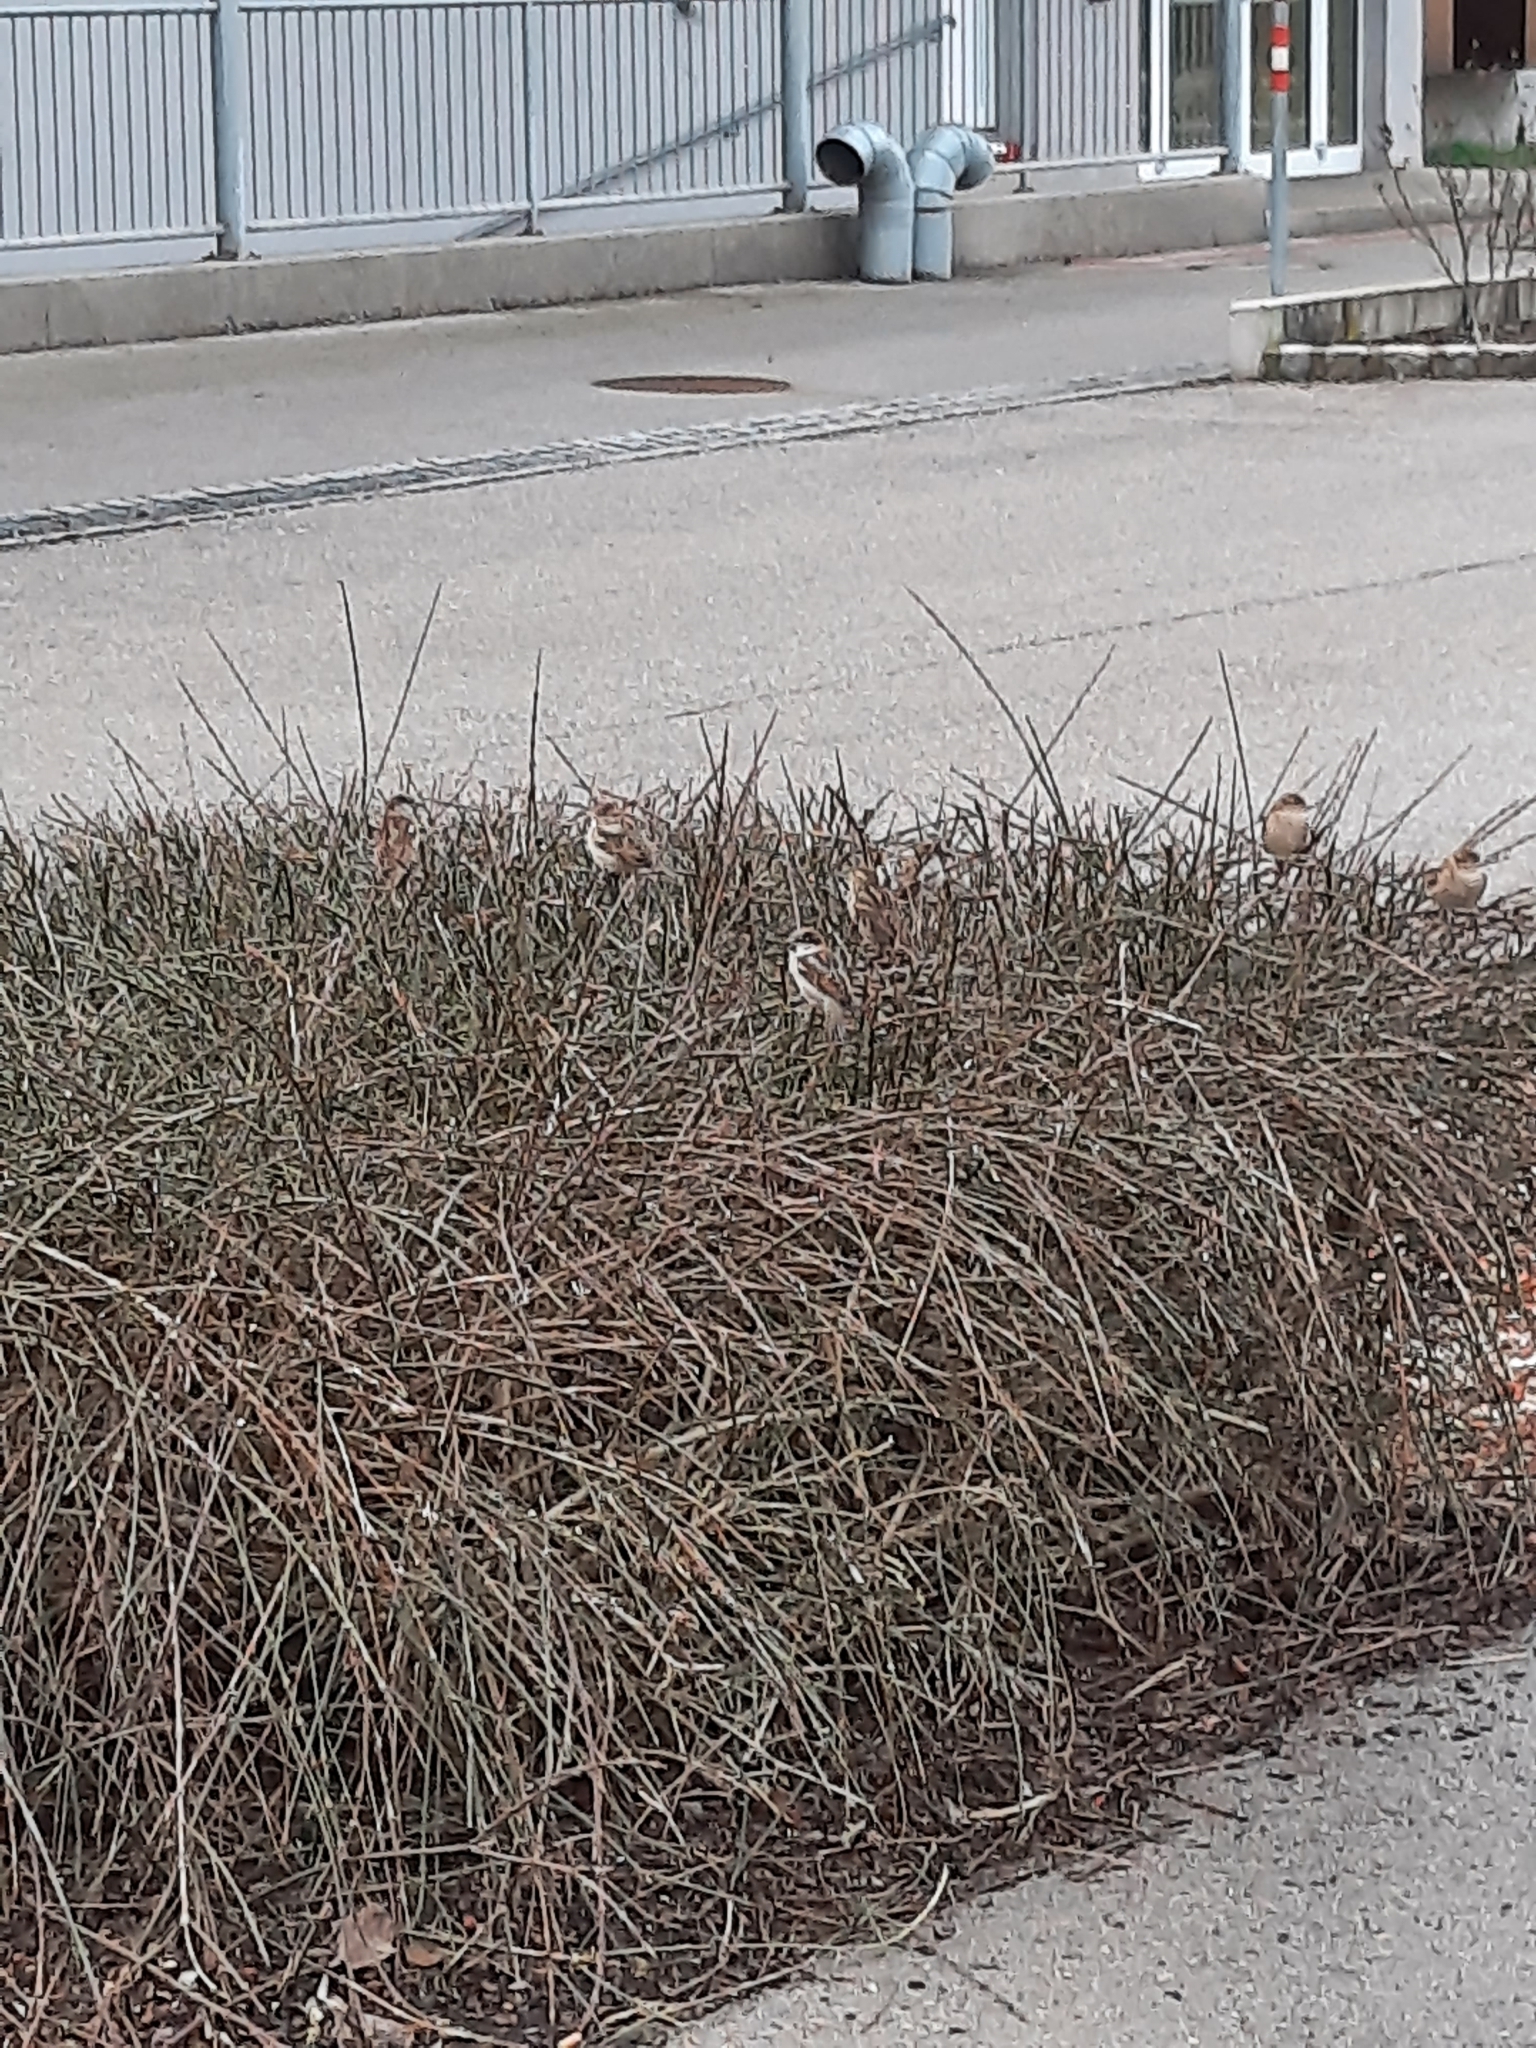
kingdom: Animalia
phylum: Chordata
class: Aves
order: Passeriformes
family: Passeridae
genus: Passer
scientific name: Passer domesticus
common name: House sparrow
